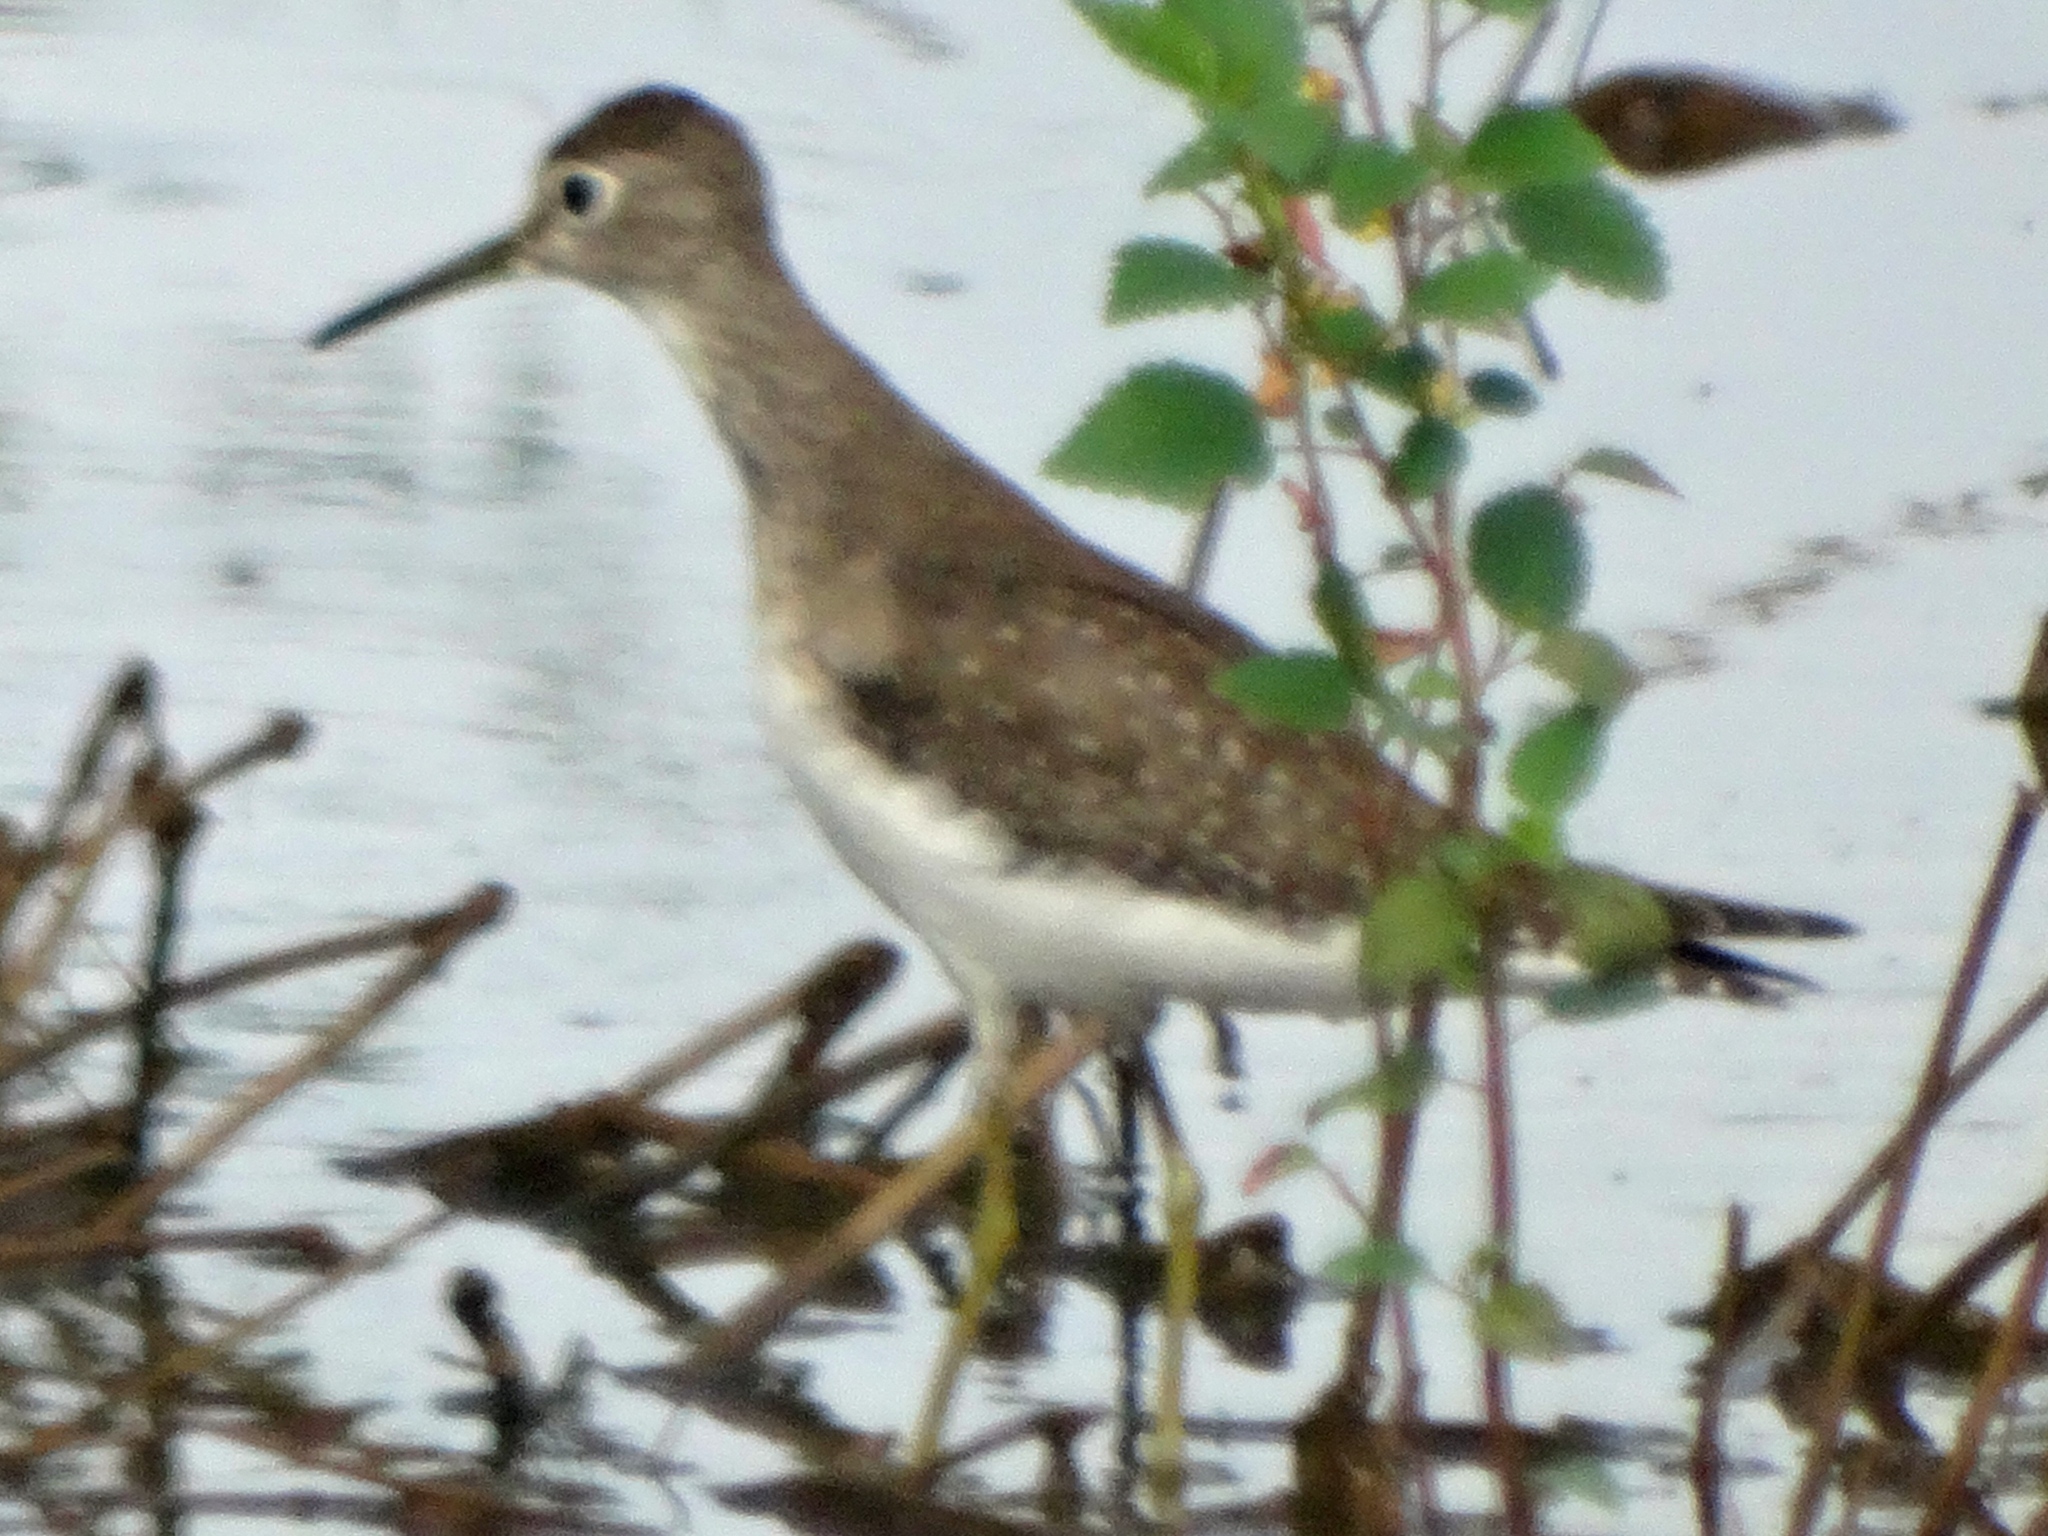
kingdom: Animalia
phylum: Chordata
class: Aves
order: Charadriiformes
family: Scolopacidae
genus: Tringa
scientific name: Tringa solitaria
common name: Solitary sandpiper
